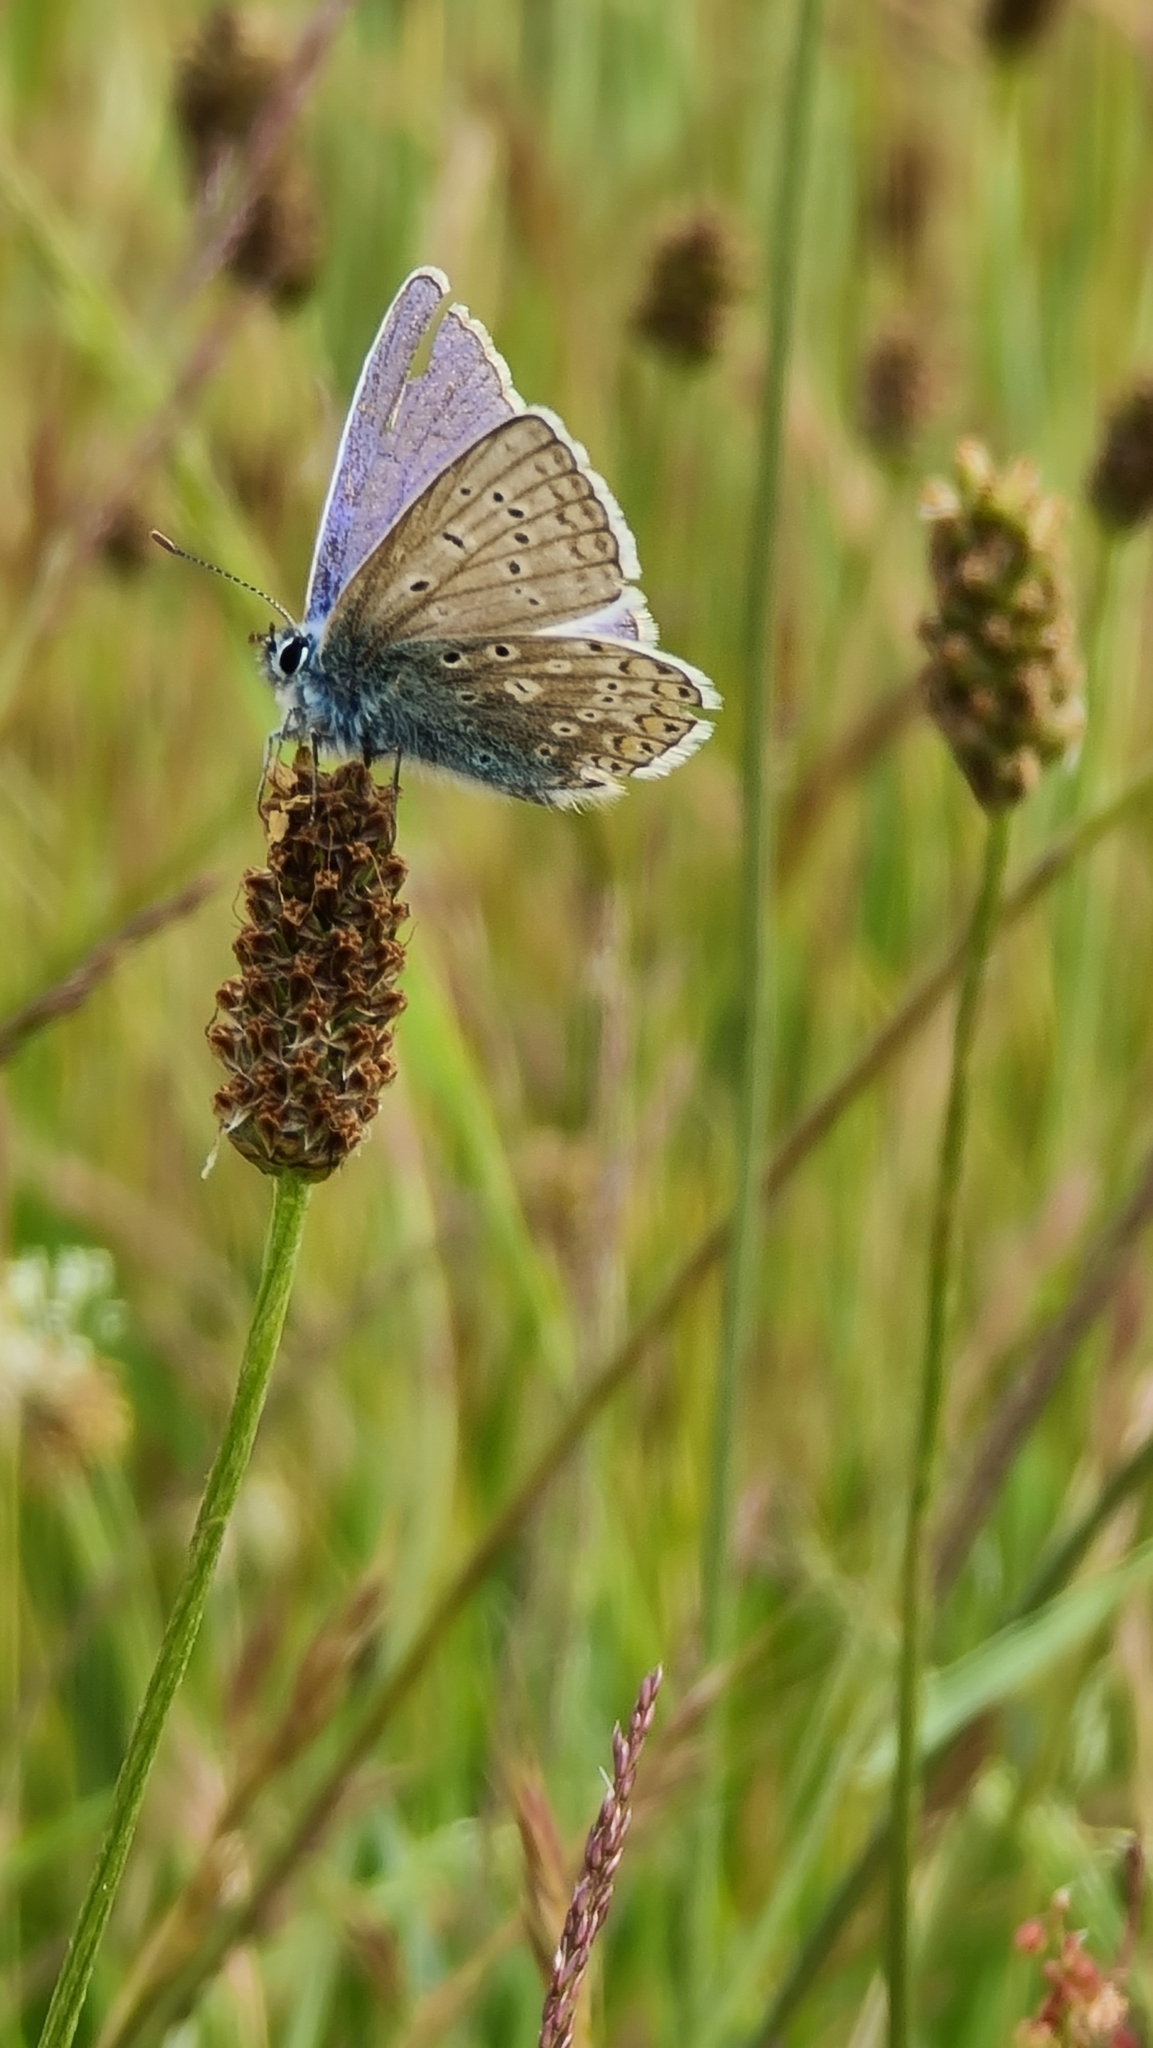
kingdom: Animalia
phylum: Arthropoda
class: Insecta
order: Lepidoptera
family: Lycaenidae
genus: Polyommatus
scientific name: Polyommatus icarus
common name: Common blue
